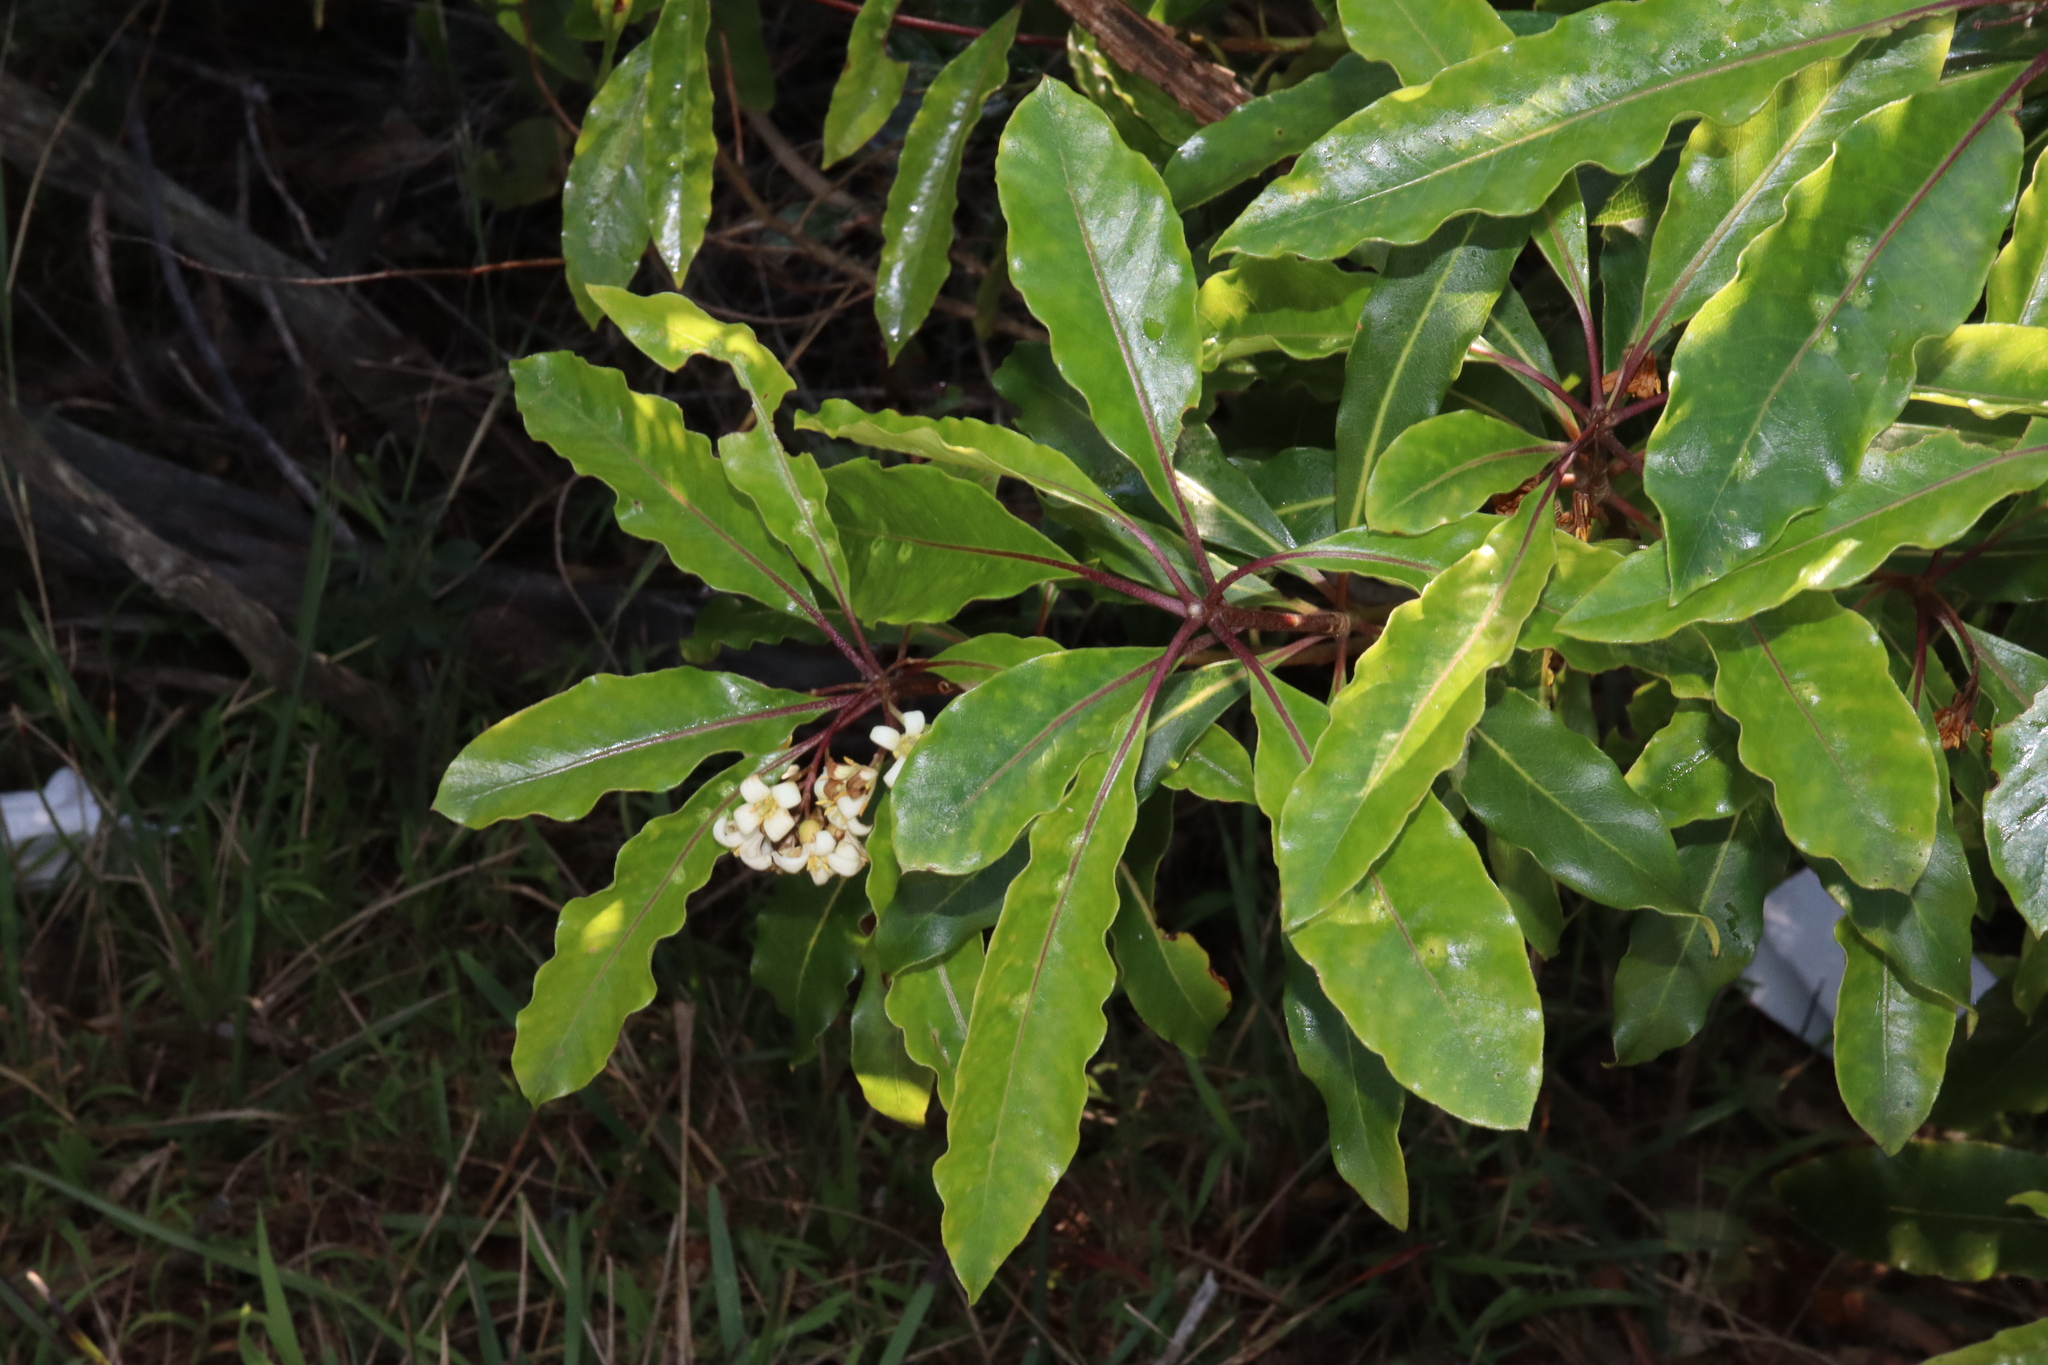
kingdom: Plantae
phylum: Tracheophyta
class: Magnoliopsida
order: Apiales
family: Pittosporaceae
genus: Pittosporum
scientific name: Pittosporum undulatum
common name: Australian cheesewood
